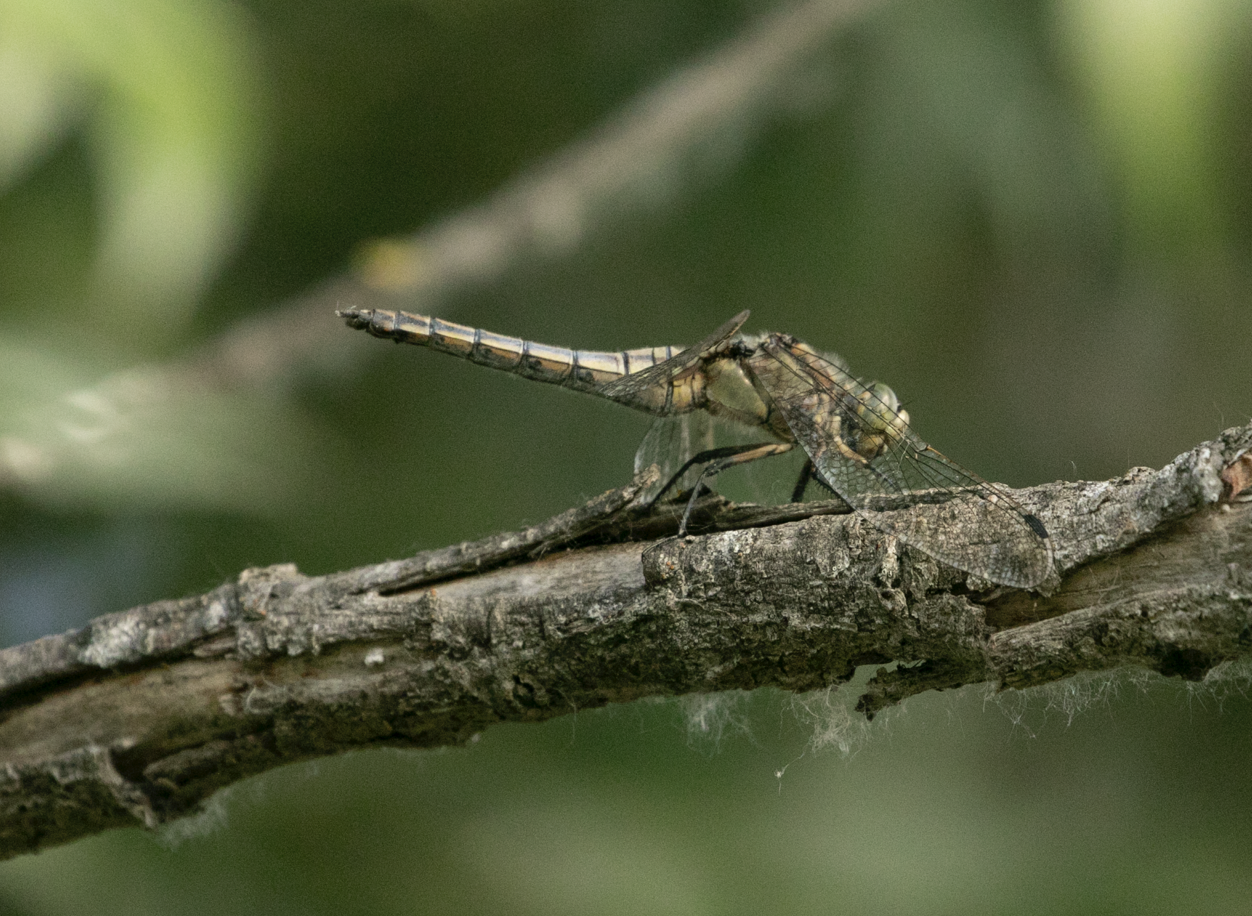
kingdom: Animalia
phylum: Arthropoda
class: Insecta
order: Odonata
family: Libellulidae
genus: Orthetrum
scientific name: Orthetrum cancellatum
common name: Black-tailed skimmer
